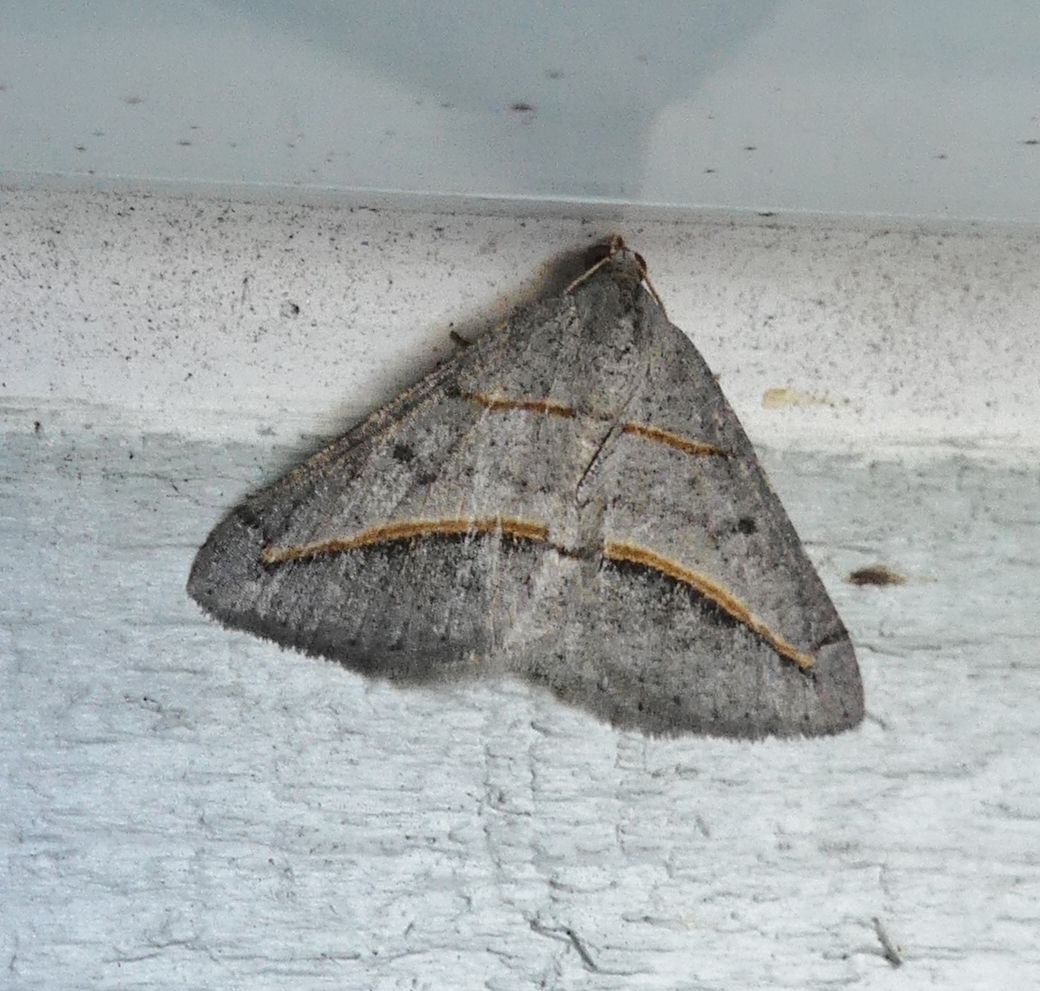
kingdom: Animalia
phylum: Arthropoda
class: Insecta
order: Lepidoptera
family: Geometridae
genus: Digrammia
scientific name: Digrammia mellistrigata
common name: Yellow-lined angle
